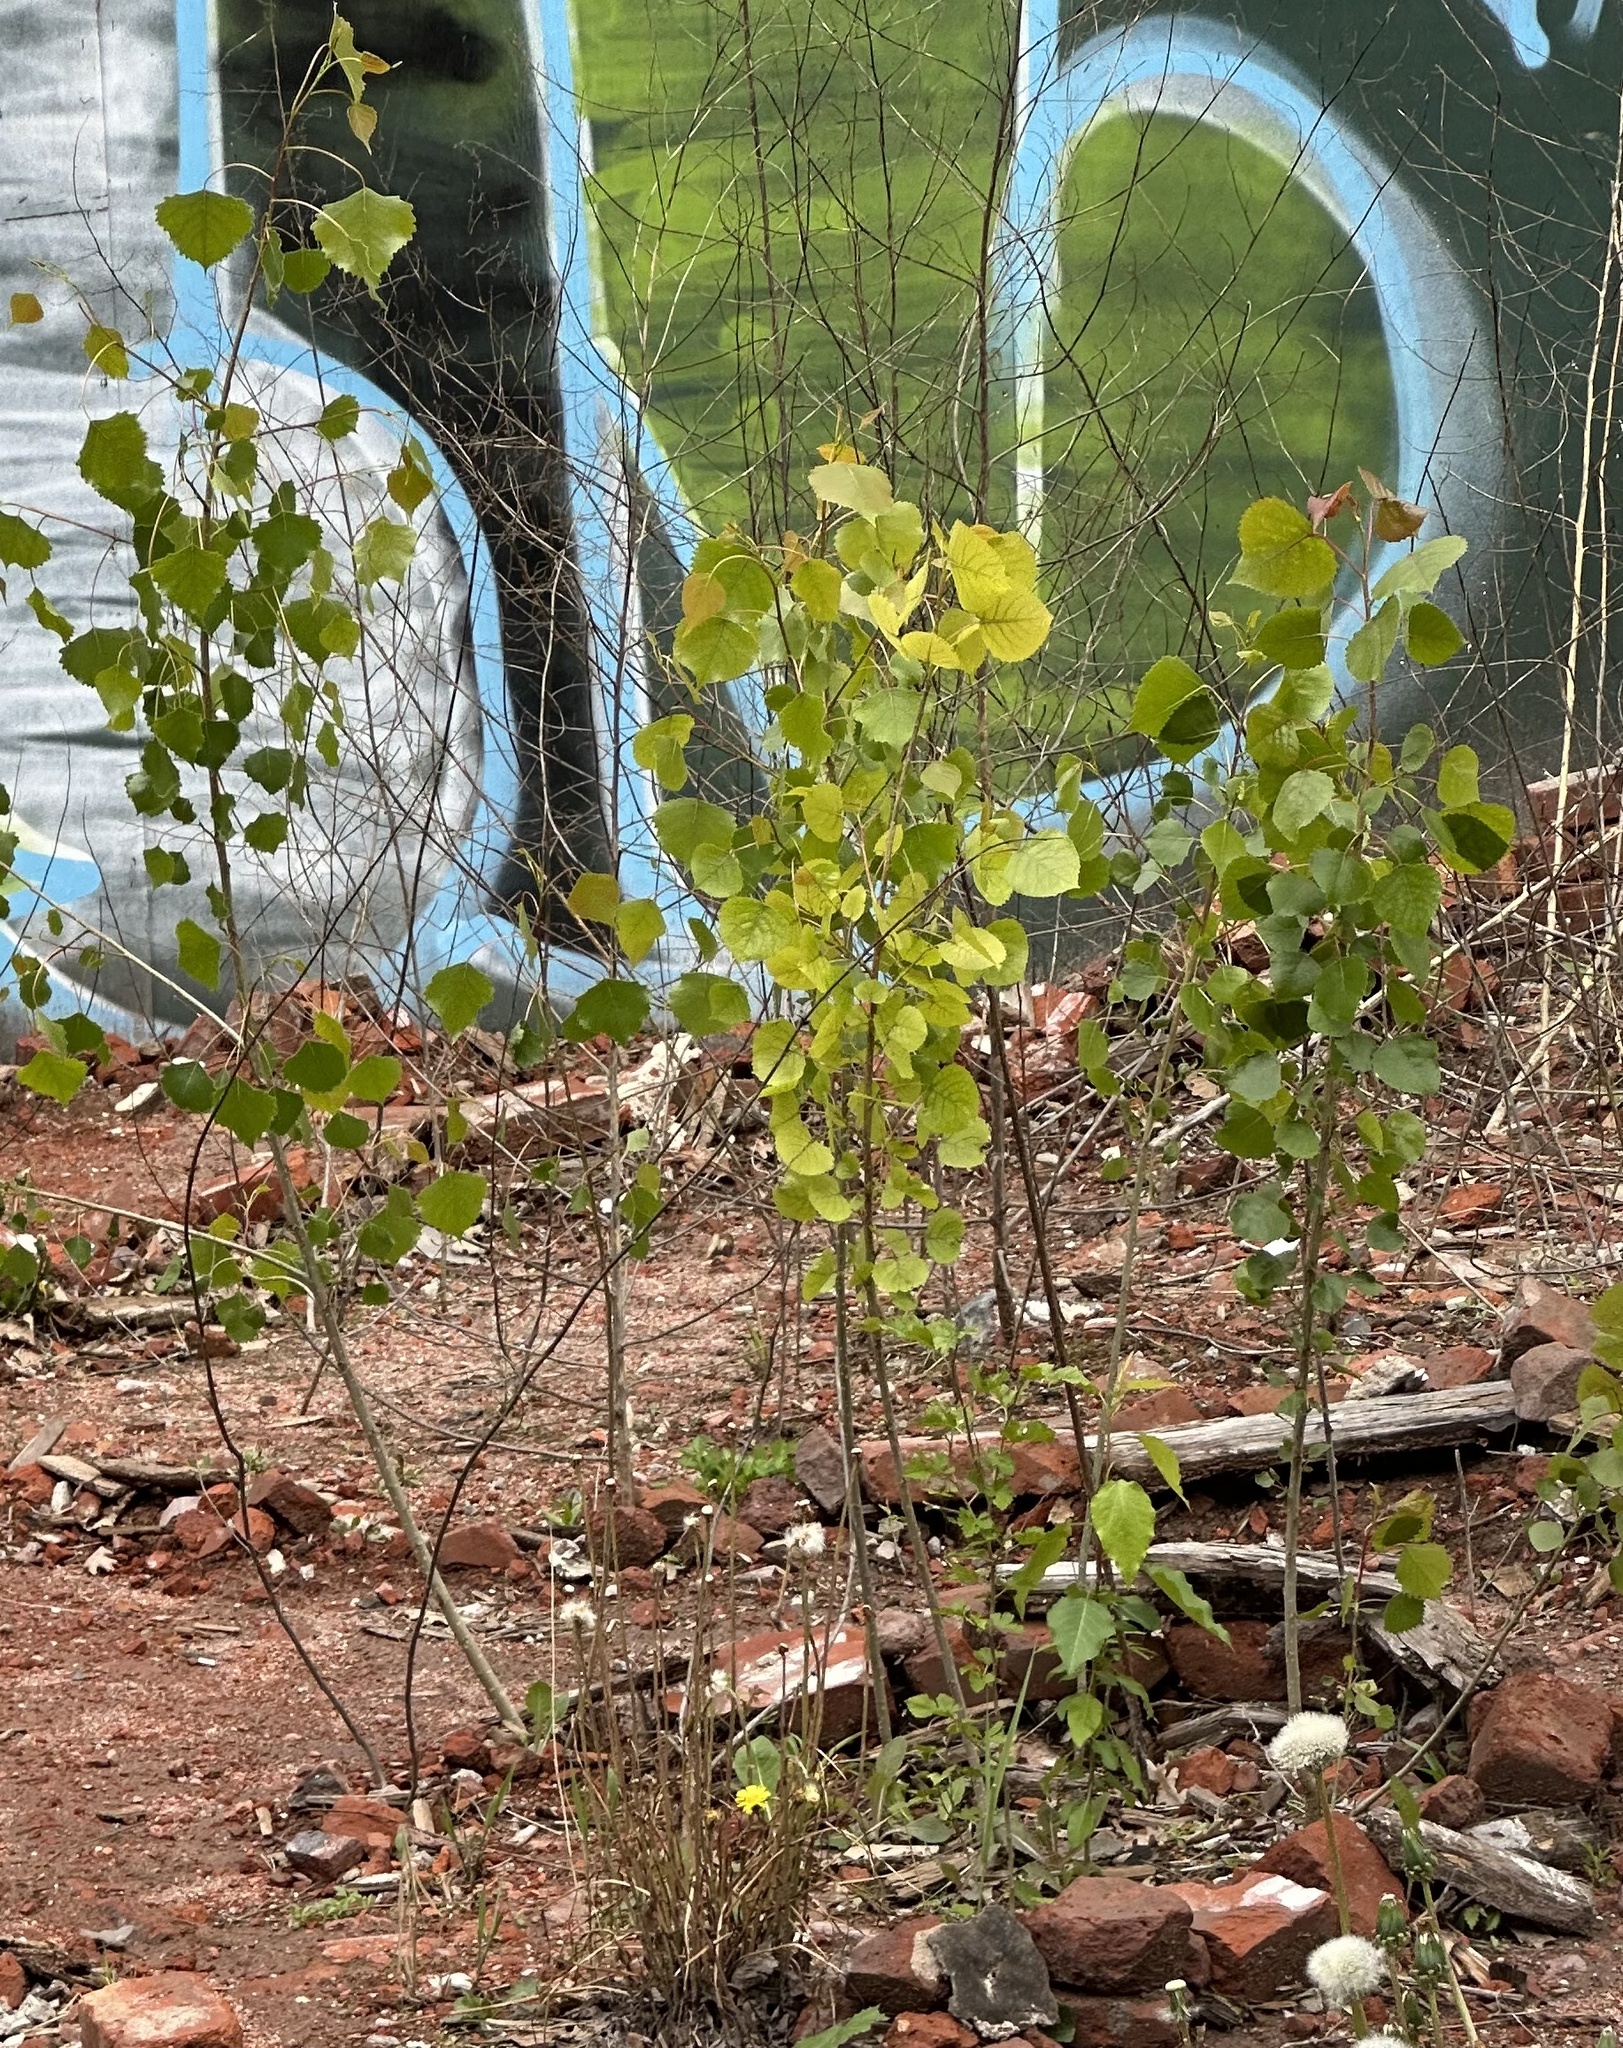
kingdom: Plantae
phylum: Tracheophyta
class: Magnoliopsida
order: Malpighiales
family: Salicaceae
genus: Populus
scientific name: Populus deltoides
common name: Eastern cottonwood
